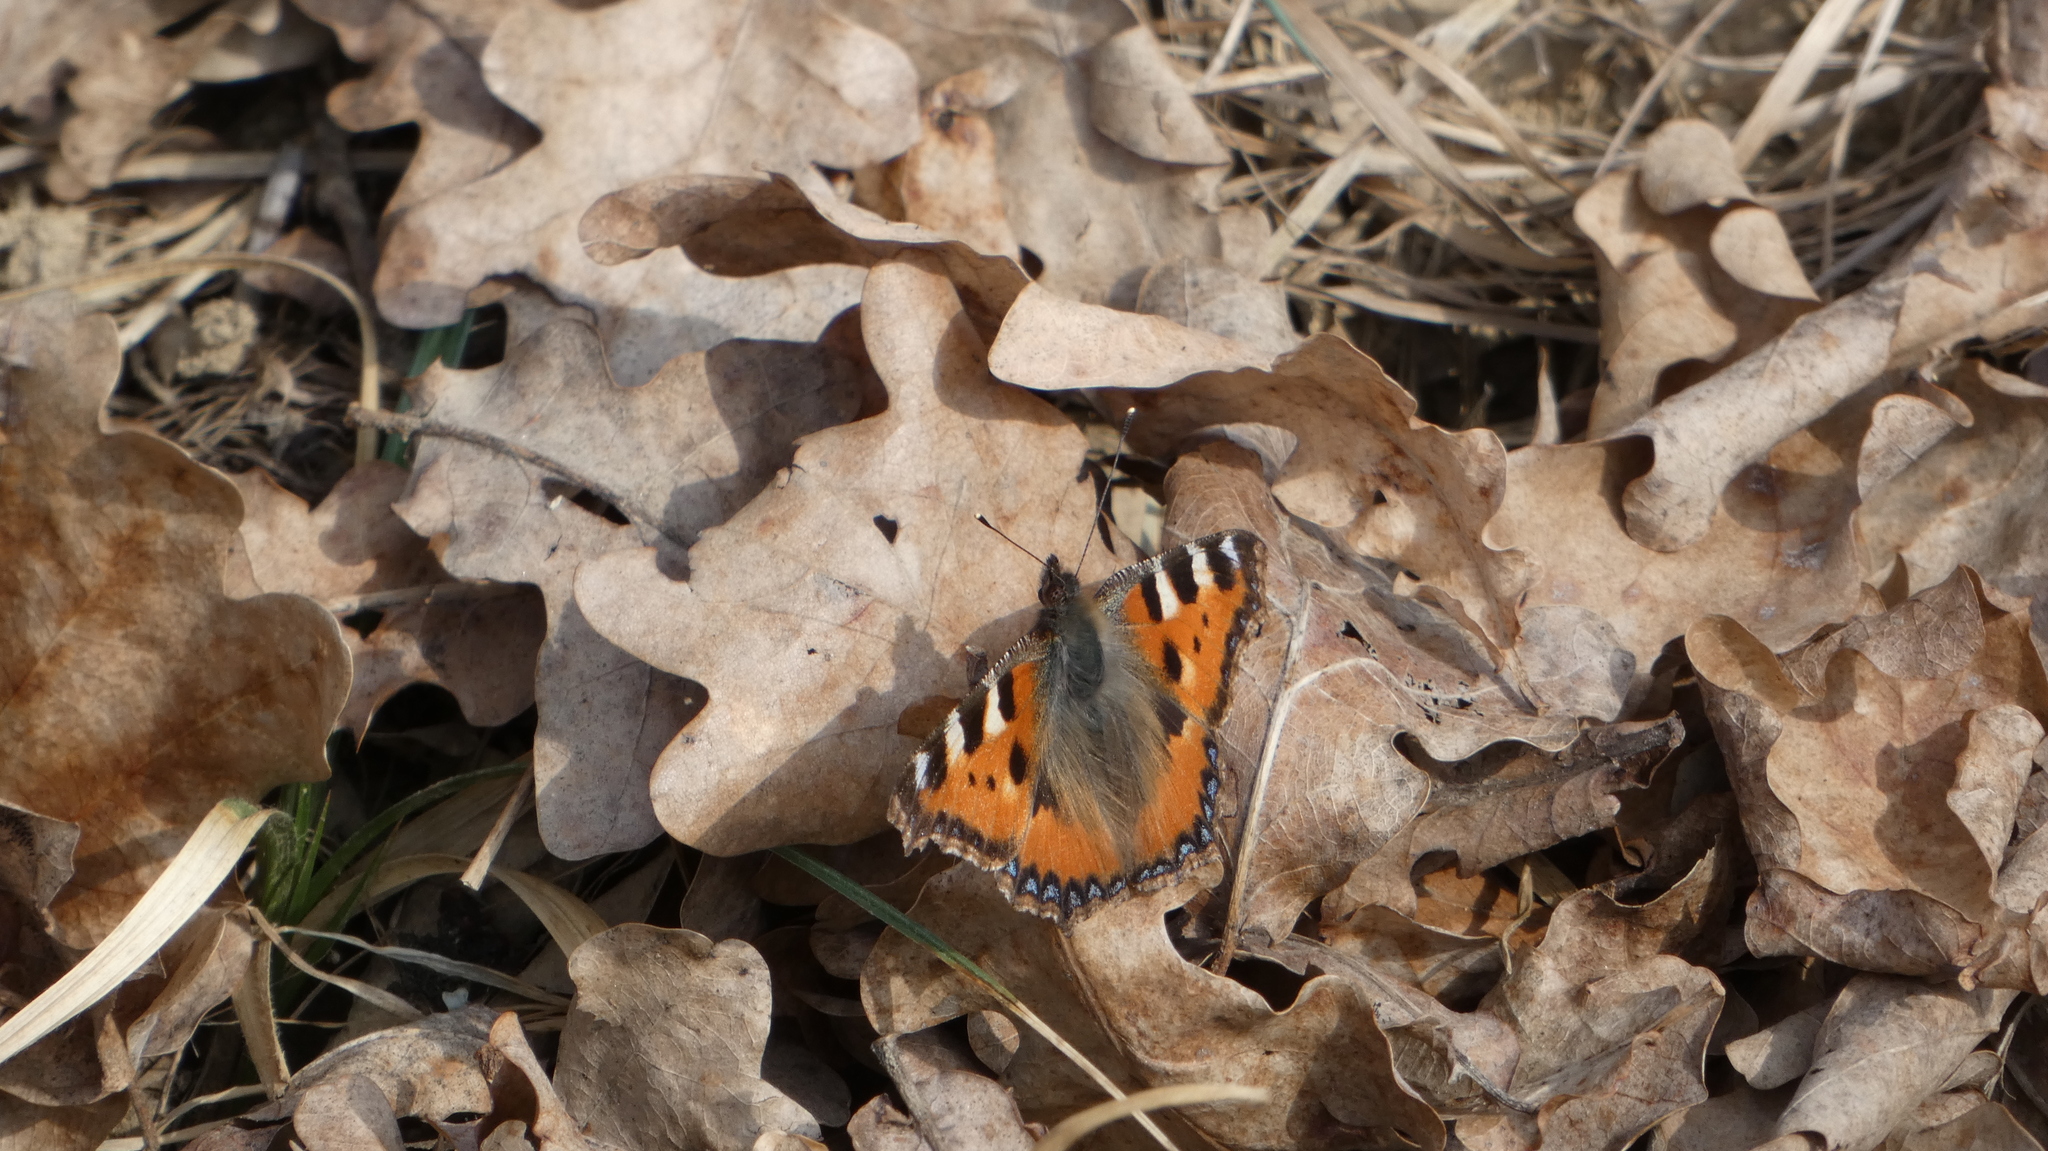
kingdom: Animalia
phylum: Arthropoda
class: Insecta
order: Lepidoptera
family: Nymphalidae
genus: Aglais
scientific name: Aglais urticae
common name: Small tortoiseshell
